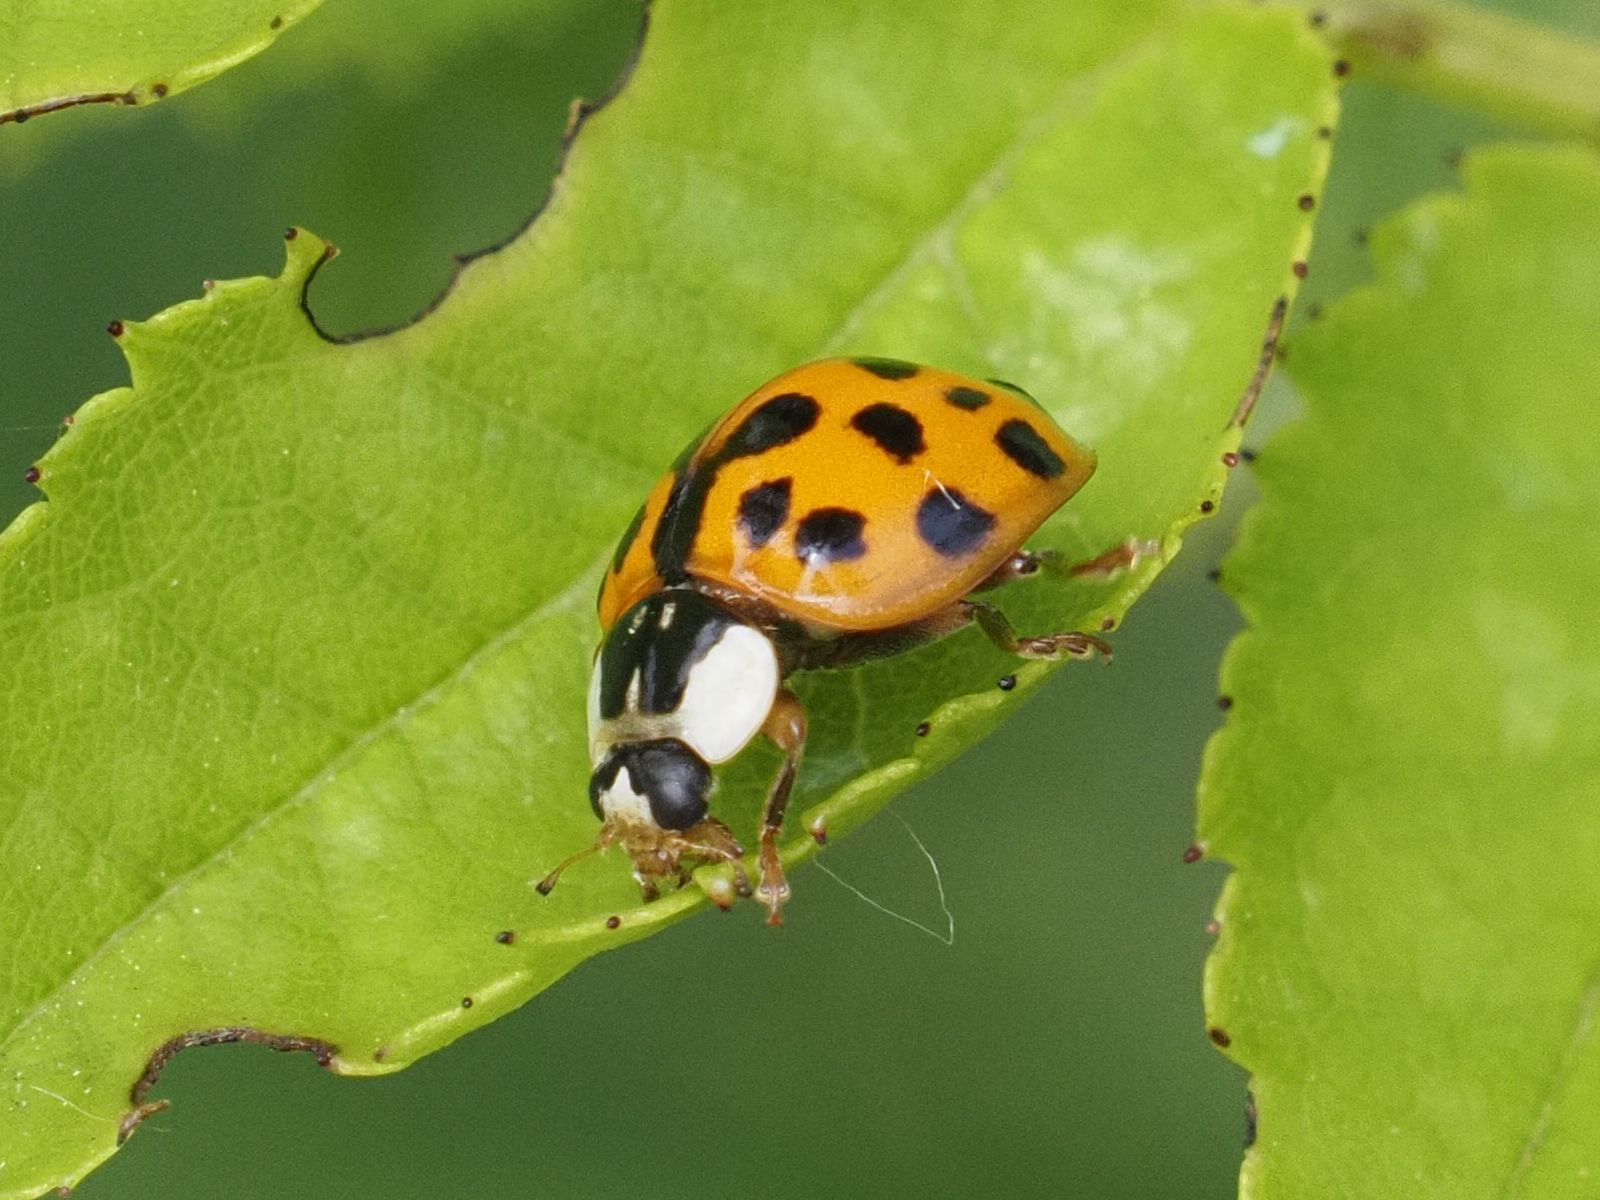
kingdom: Animalia
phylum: Arthropoda
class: Insecta
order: Coleoptera
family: Coccinellidae
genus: Harmonia
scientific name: Harmonia axyridis
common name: Harlequin ladybird
